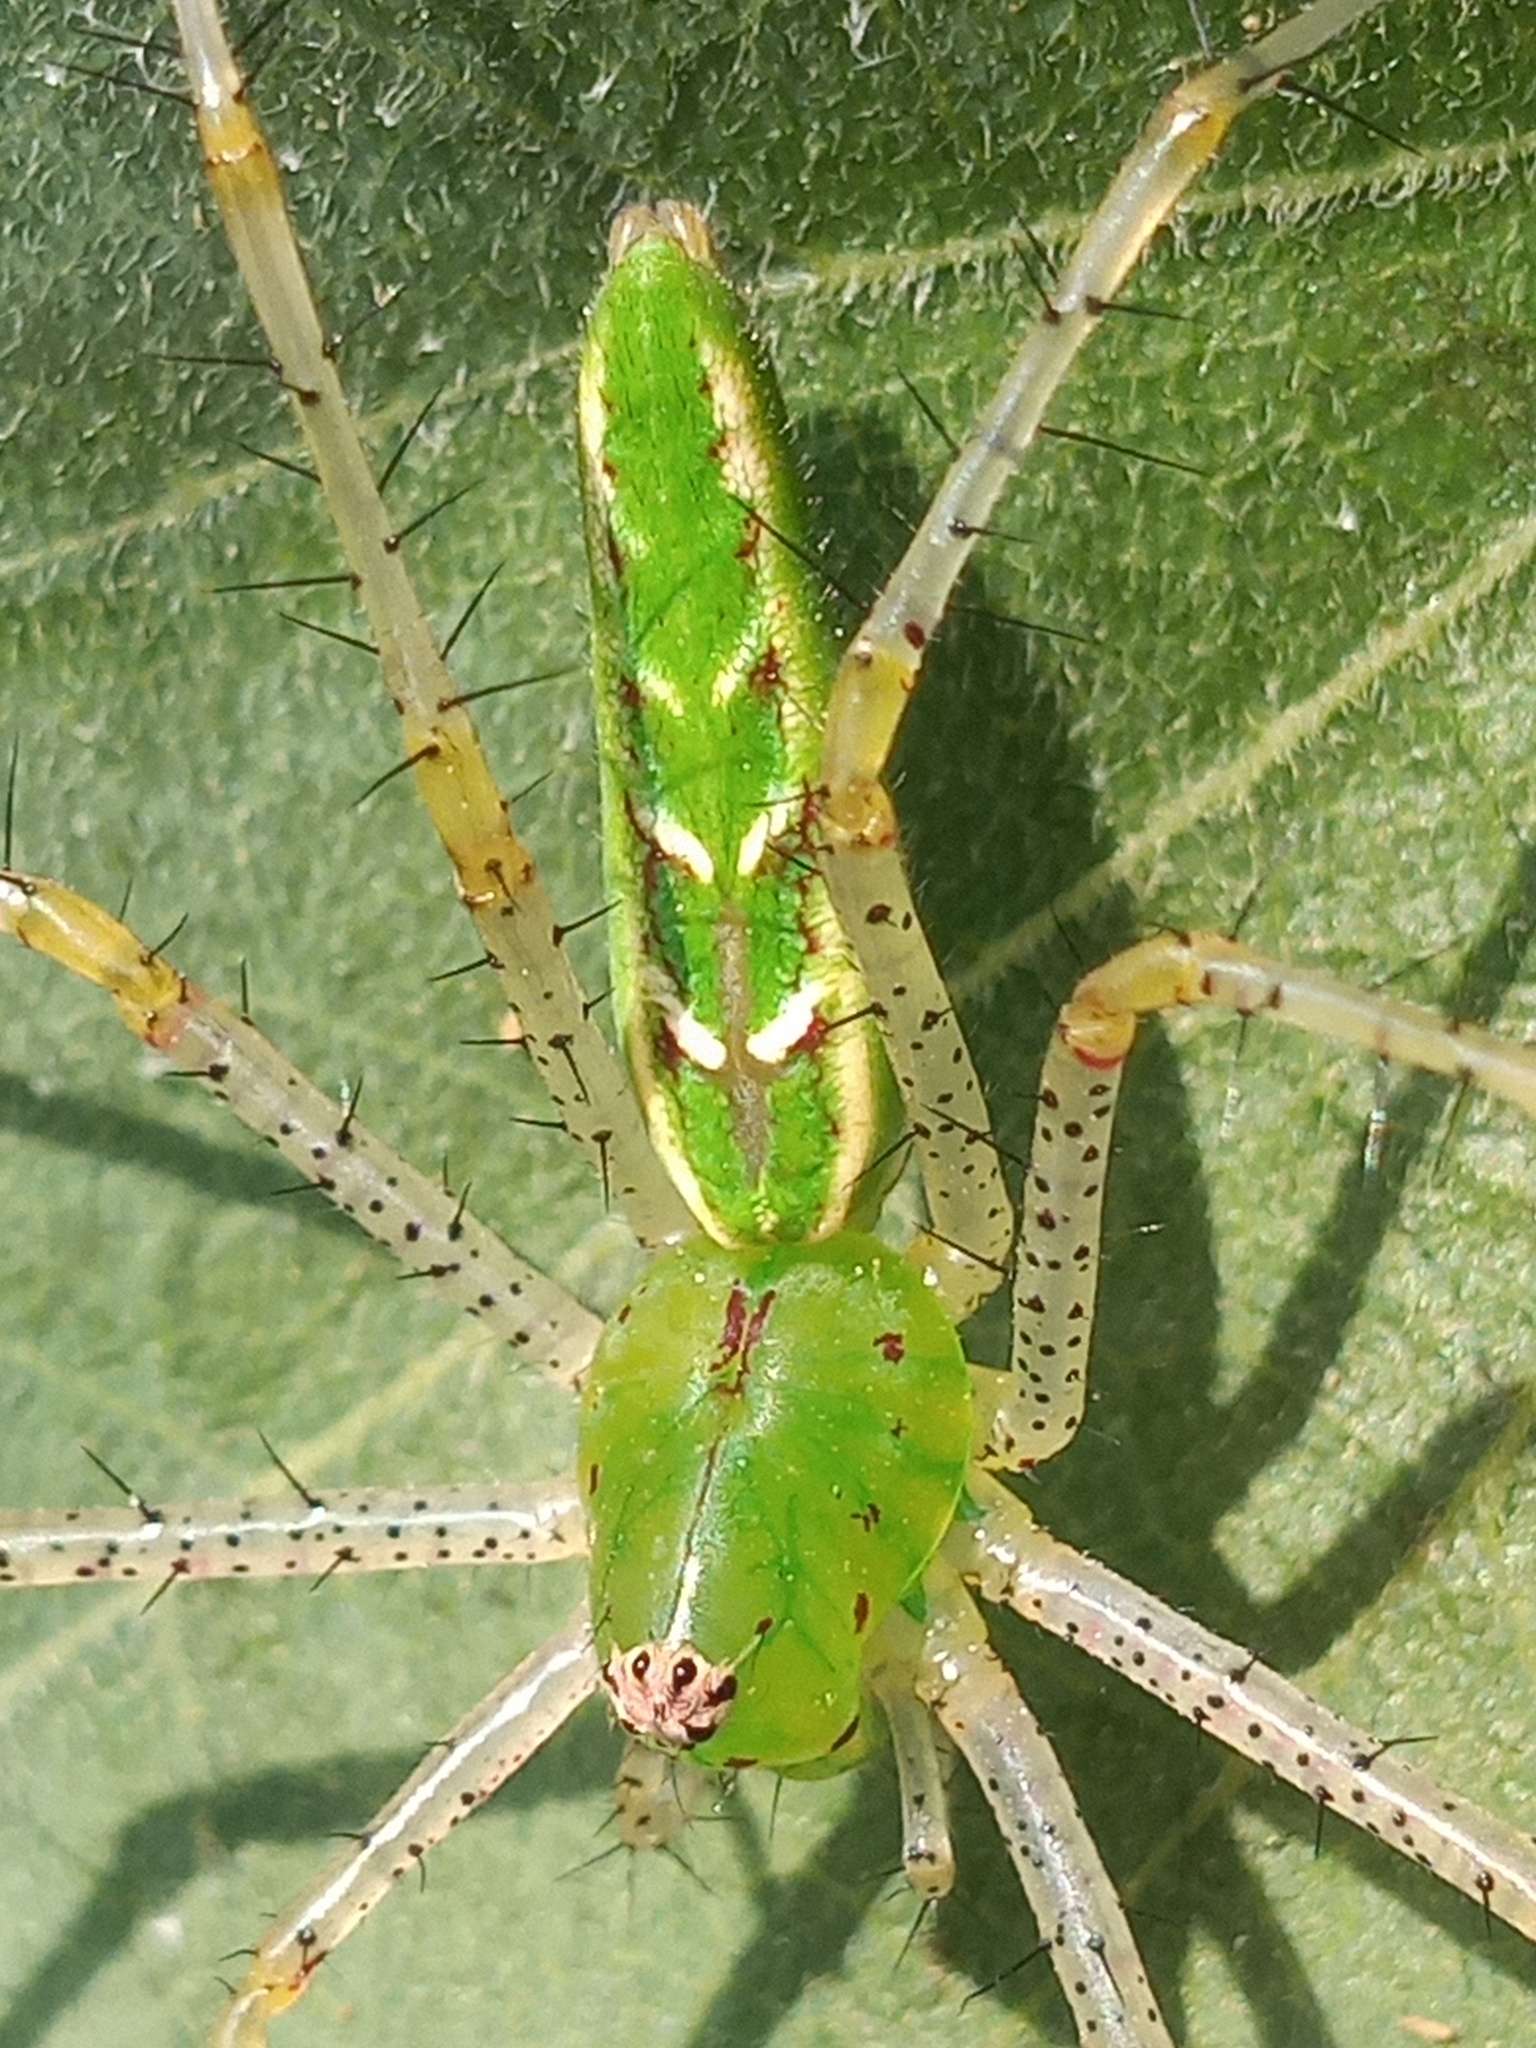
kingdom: Animalia
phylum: Arthropoda
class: Arachnida
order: Araneae
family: Oxyopidae
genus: Peucetia
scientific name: Peucetia viridans
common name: Lynx spiders
